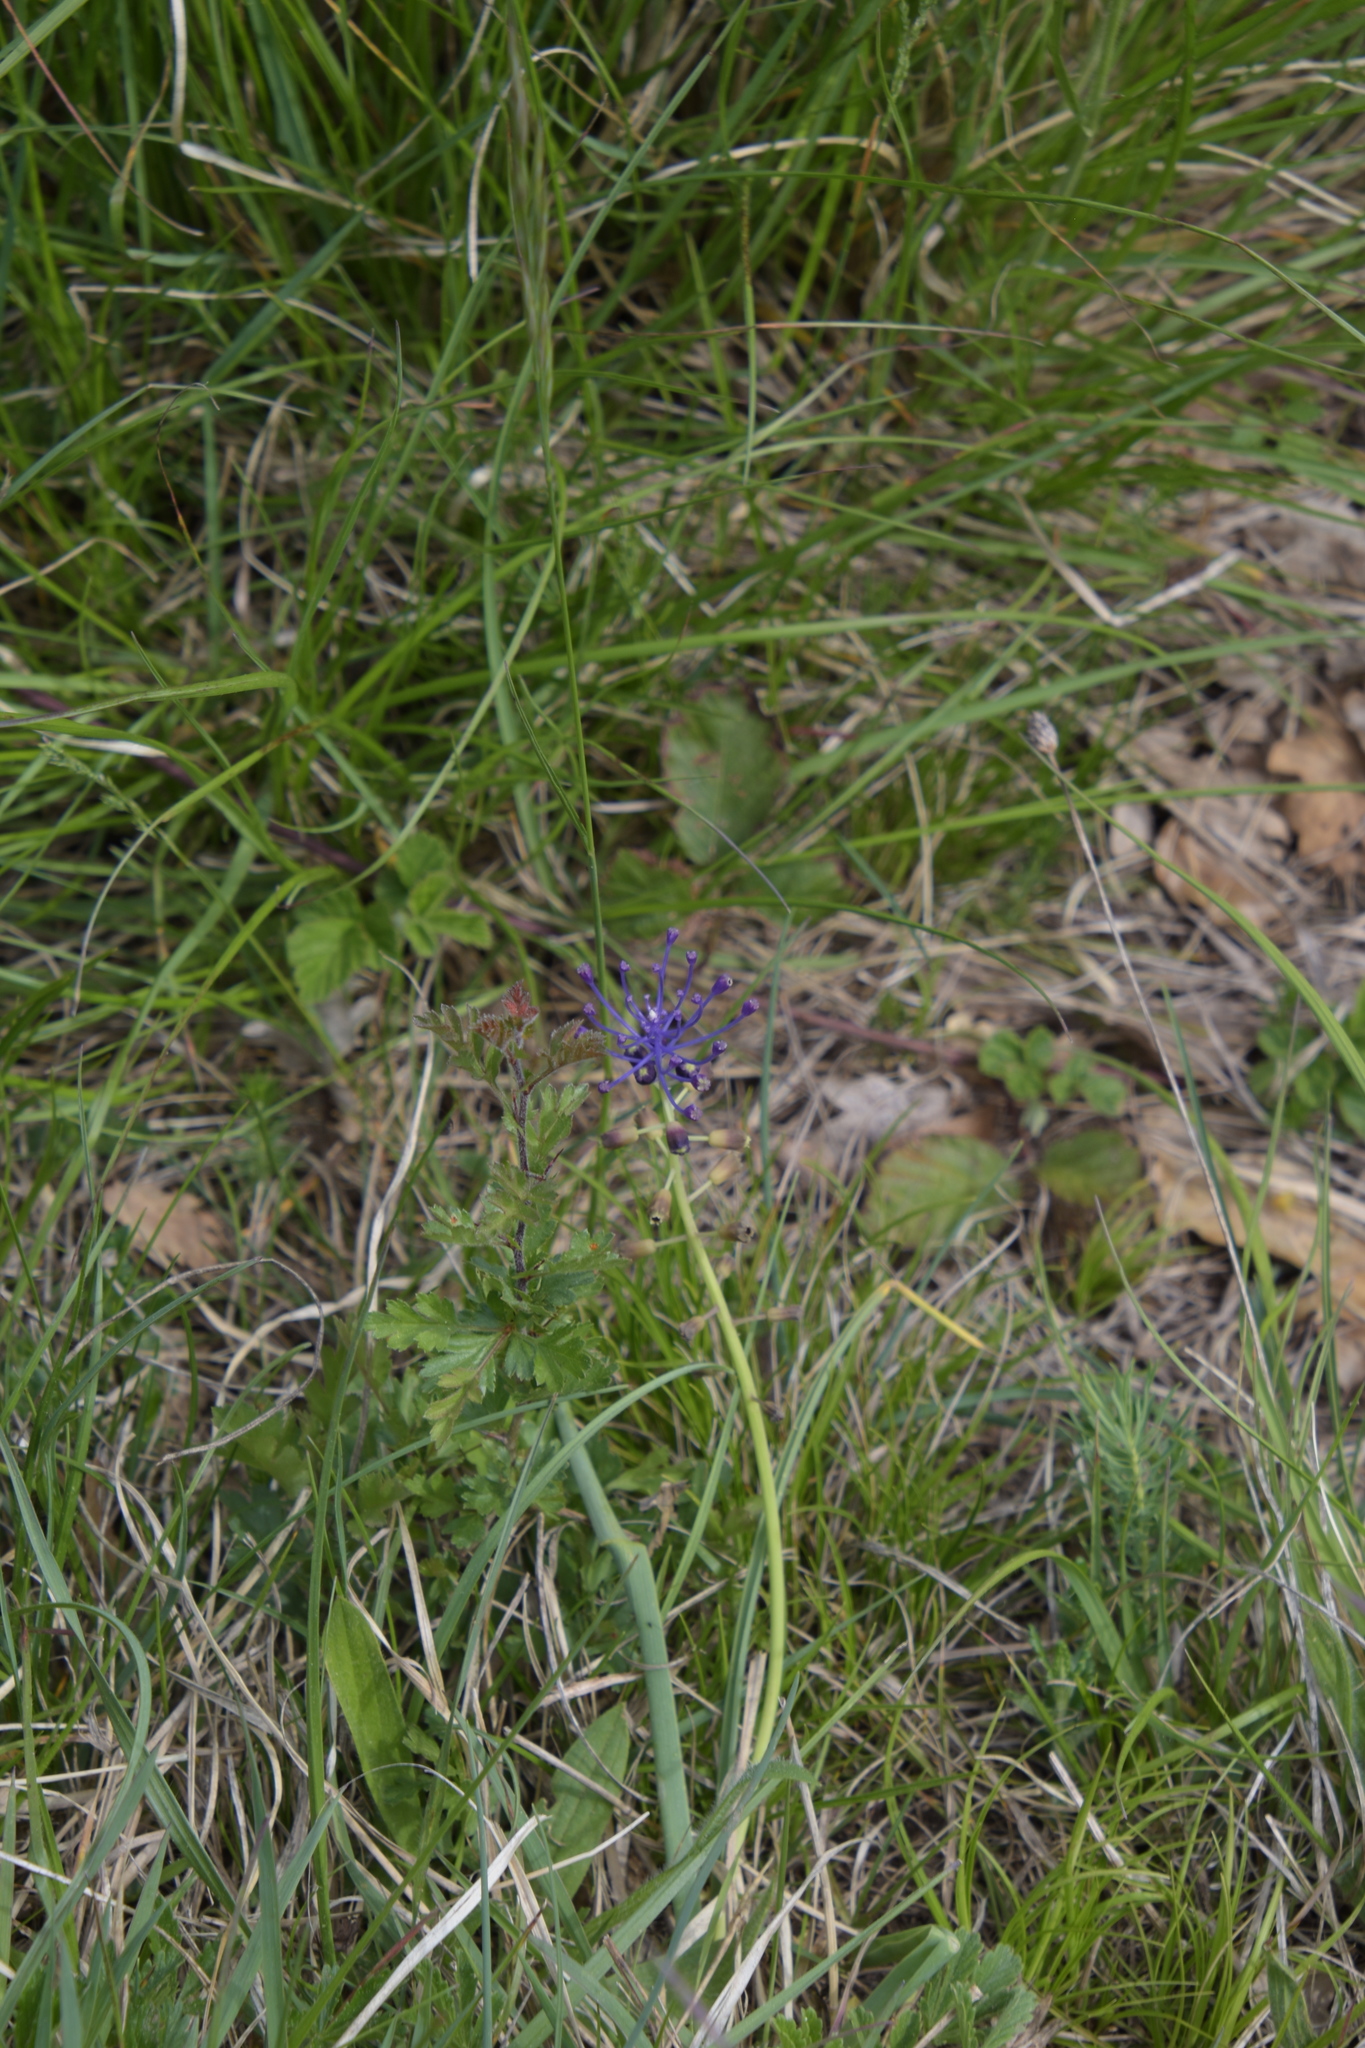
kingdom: Plantae
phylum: Tracheophyta
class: Liliopsida
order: Asparagales
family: Asparagaceae
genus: Muscari
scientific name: Muscari comosum
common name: Tassel hyacinth
